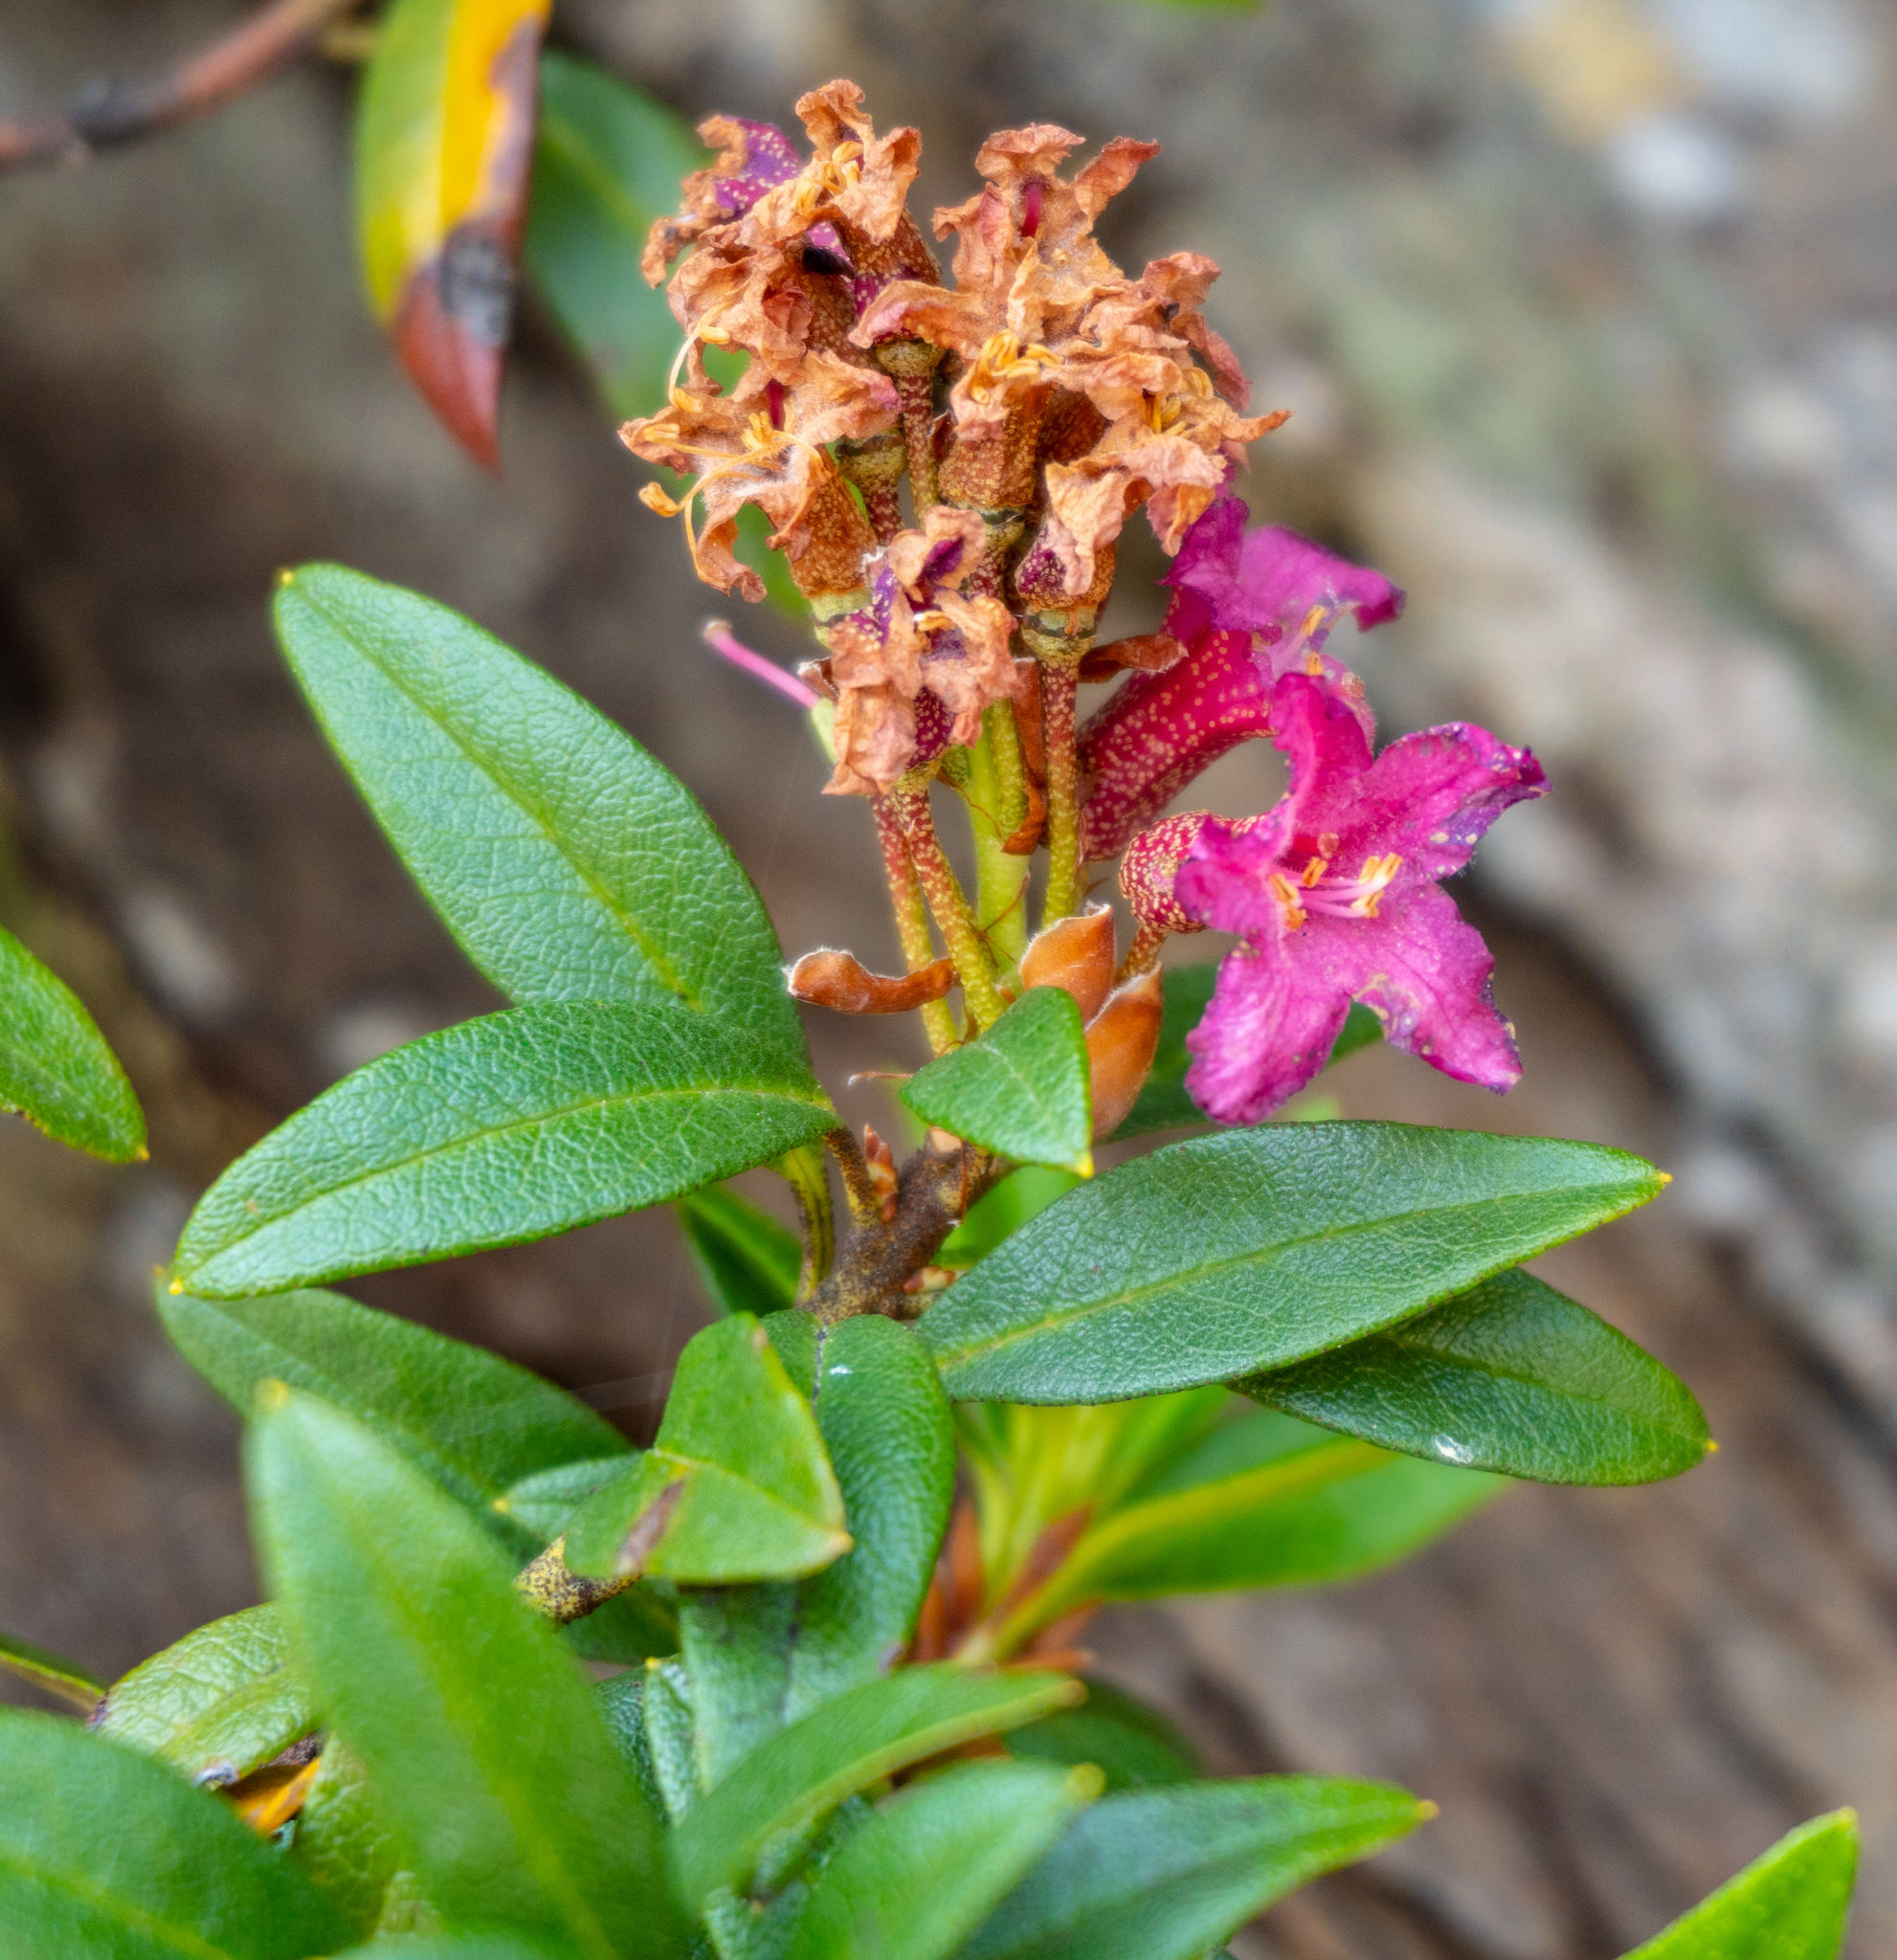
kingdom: Plantae
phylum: Tracheophyta
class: Magnoliopsida
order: Ericales
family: Ericaceae
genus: Rhododendron
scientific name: Rhododendron ferrugineum
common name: Alpenrose
